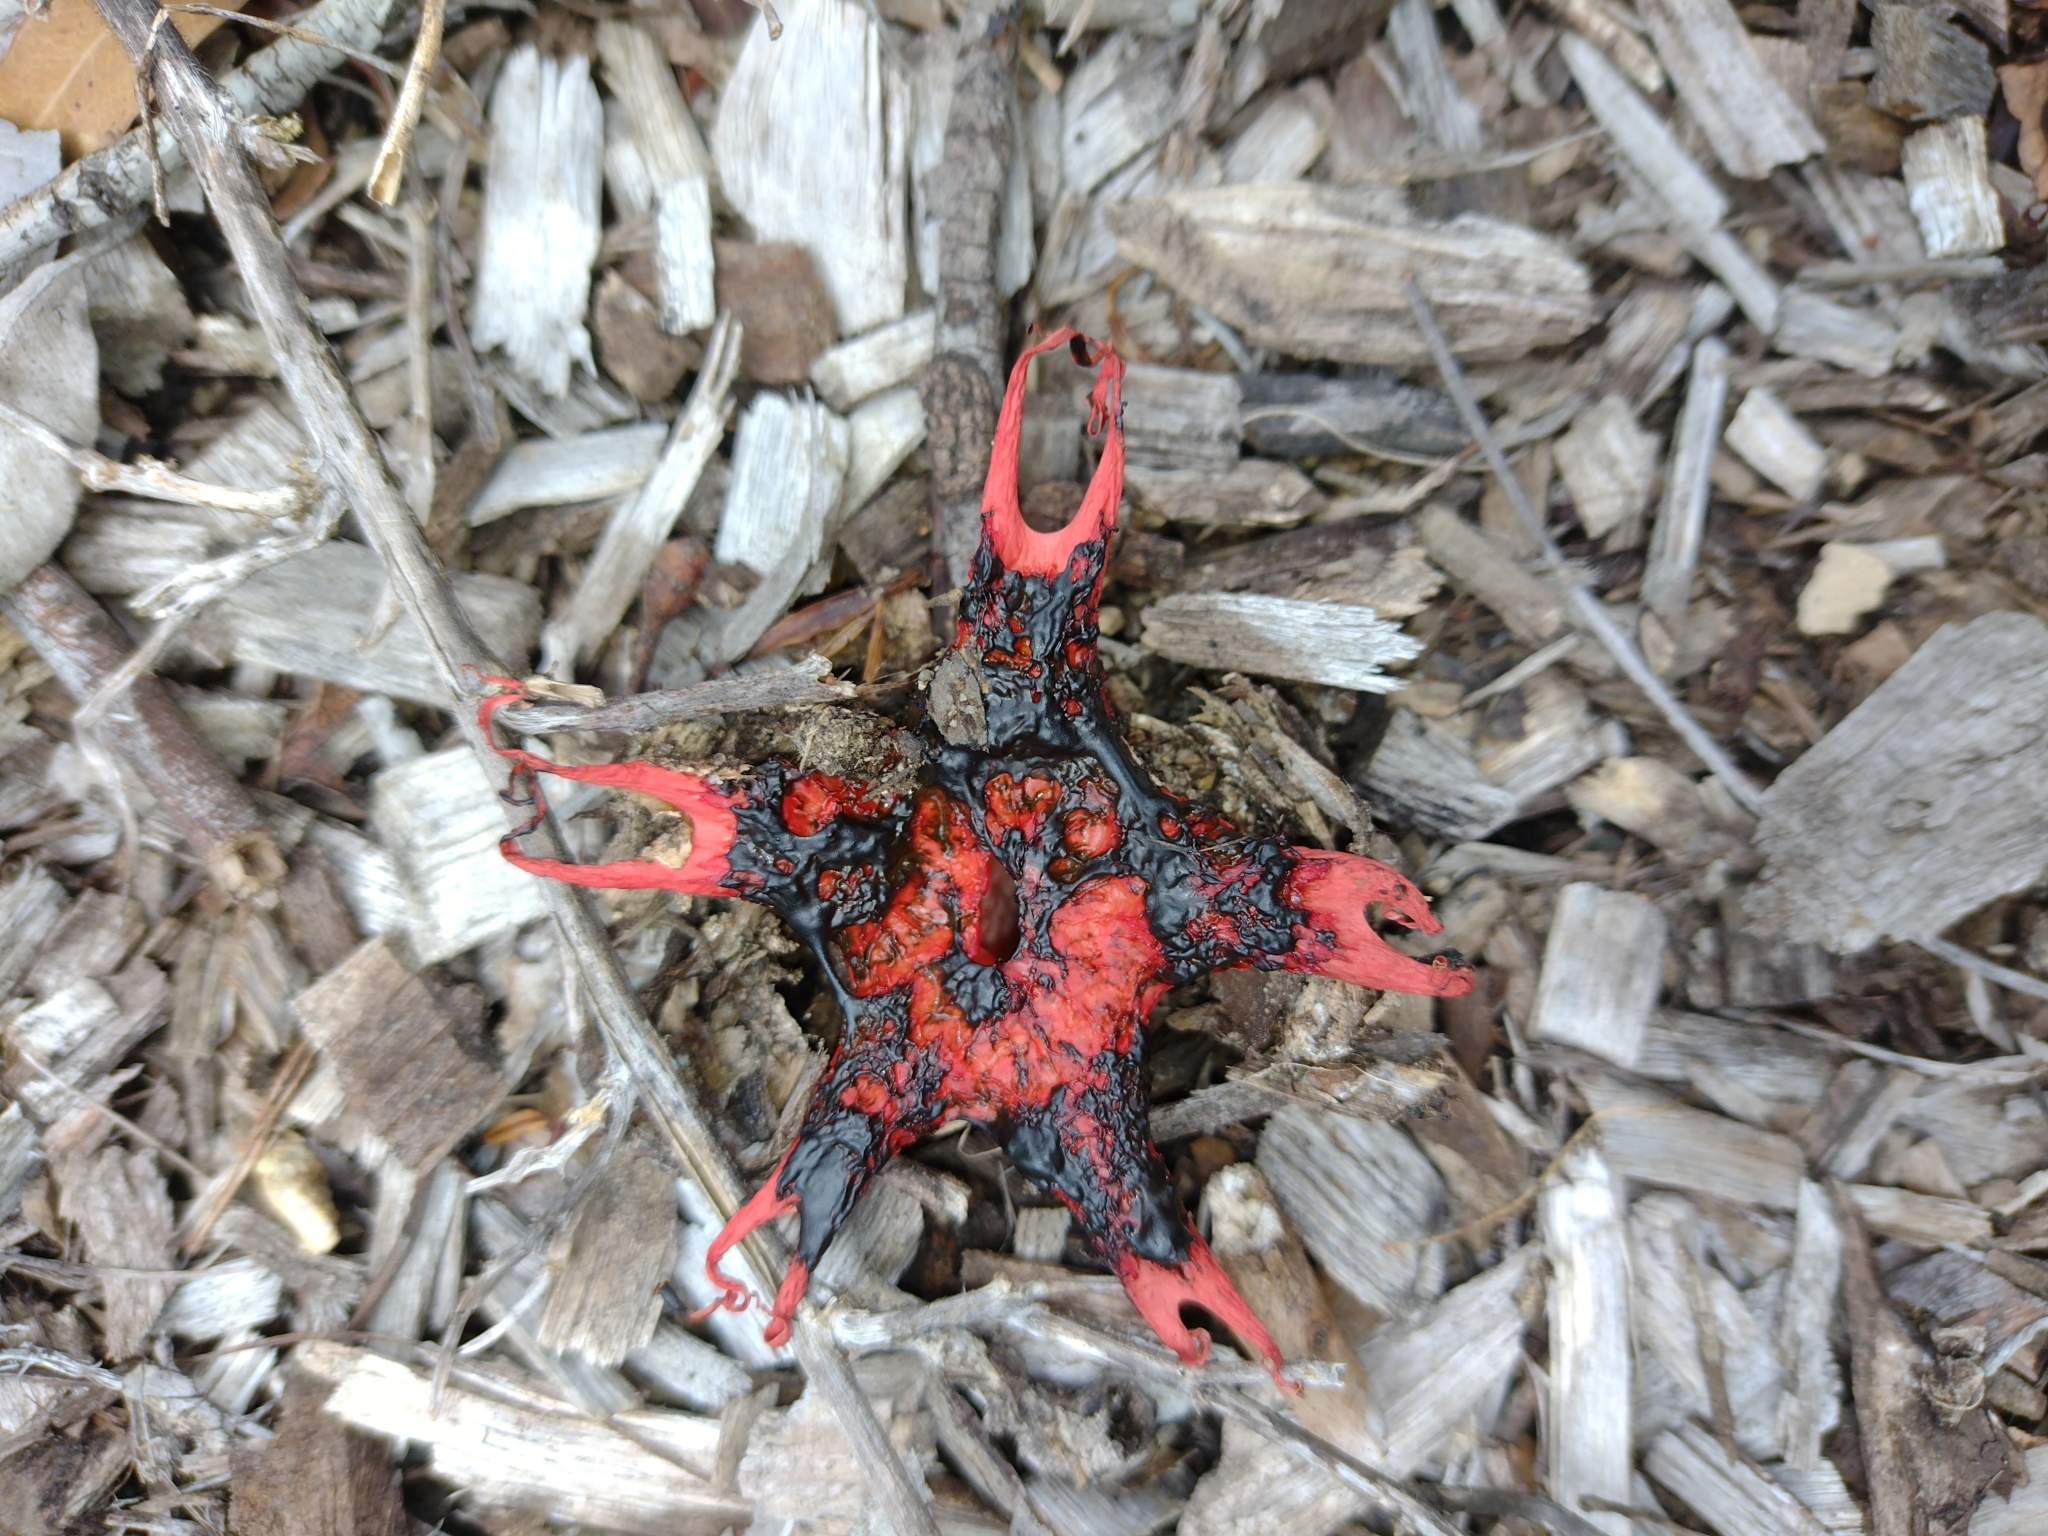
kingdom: Fungi
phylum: Basidiomycota
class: Agaricomycetes
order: Phallales
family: Phallaceae
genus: Aseroe
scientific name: Aseroe rubra
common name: Starfish fungus
